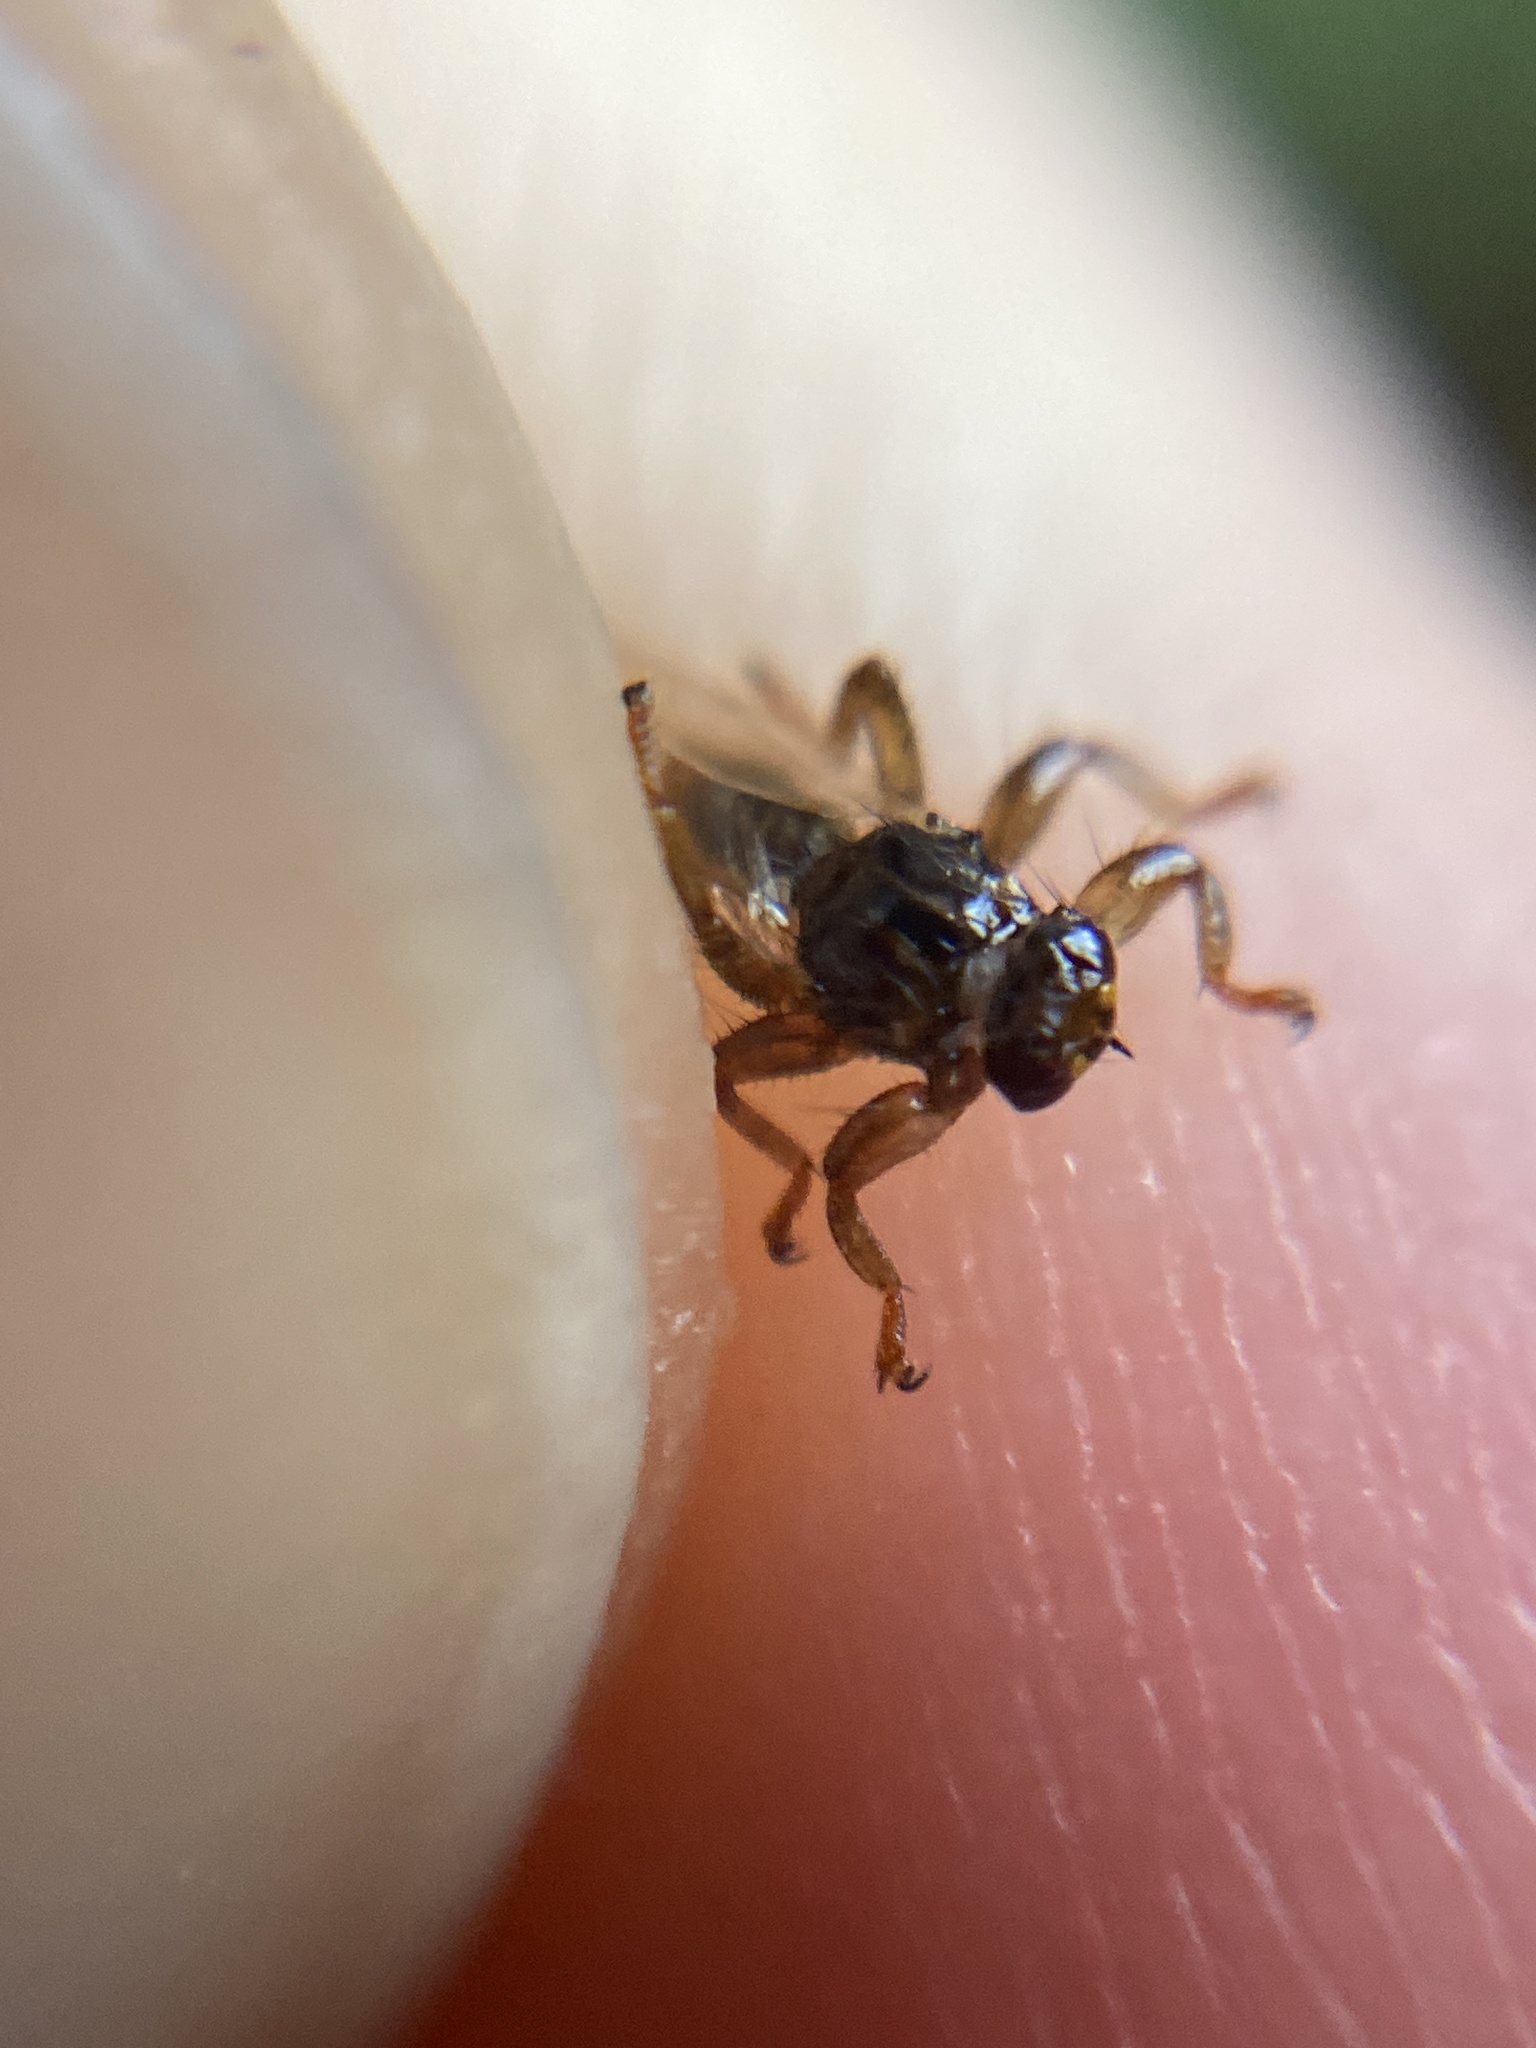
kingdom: Animalia
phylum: Arthropoda
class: Insecta
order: Diptera
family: Hippoboscidae
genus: Lipoptena
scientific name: Lipoptena fortisetosa
